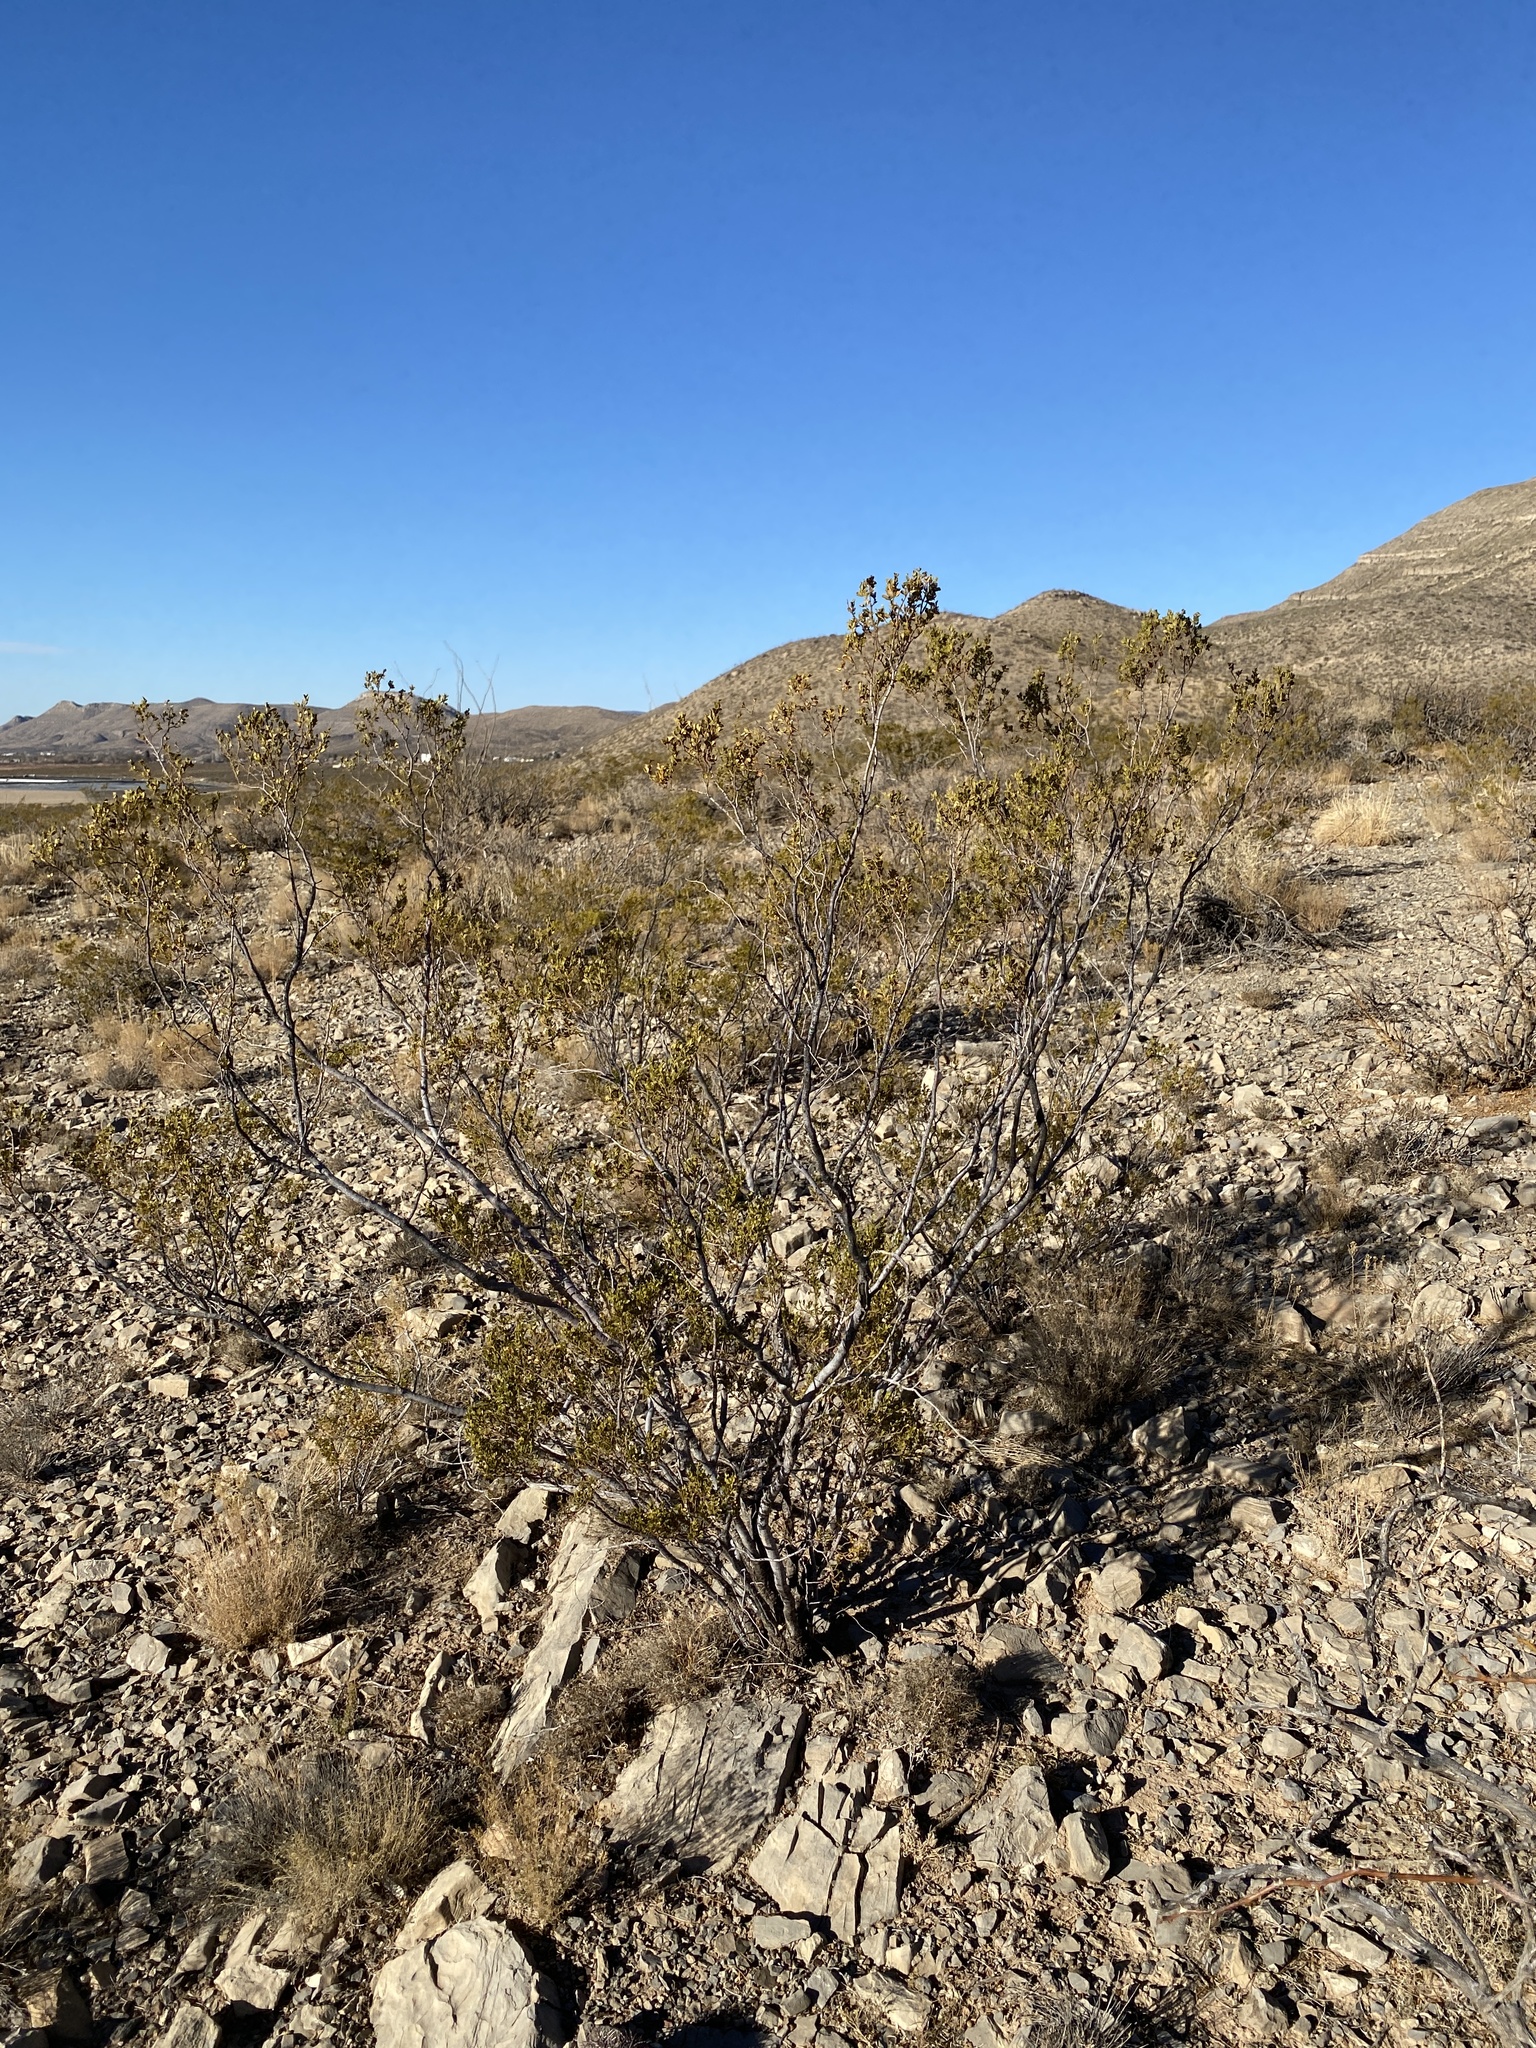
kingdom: Plantae
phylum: Tracheophyta
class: Magnoliopsida
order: Zygophyllales
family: Zygophyllaceae
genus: Larrea
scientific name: Larrea tridentata
